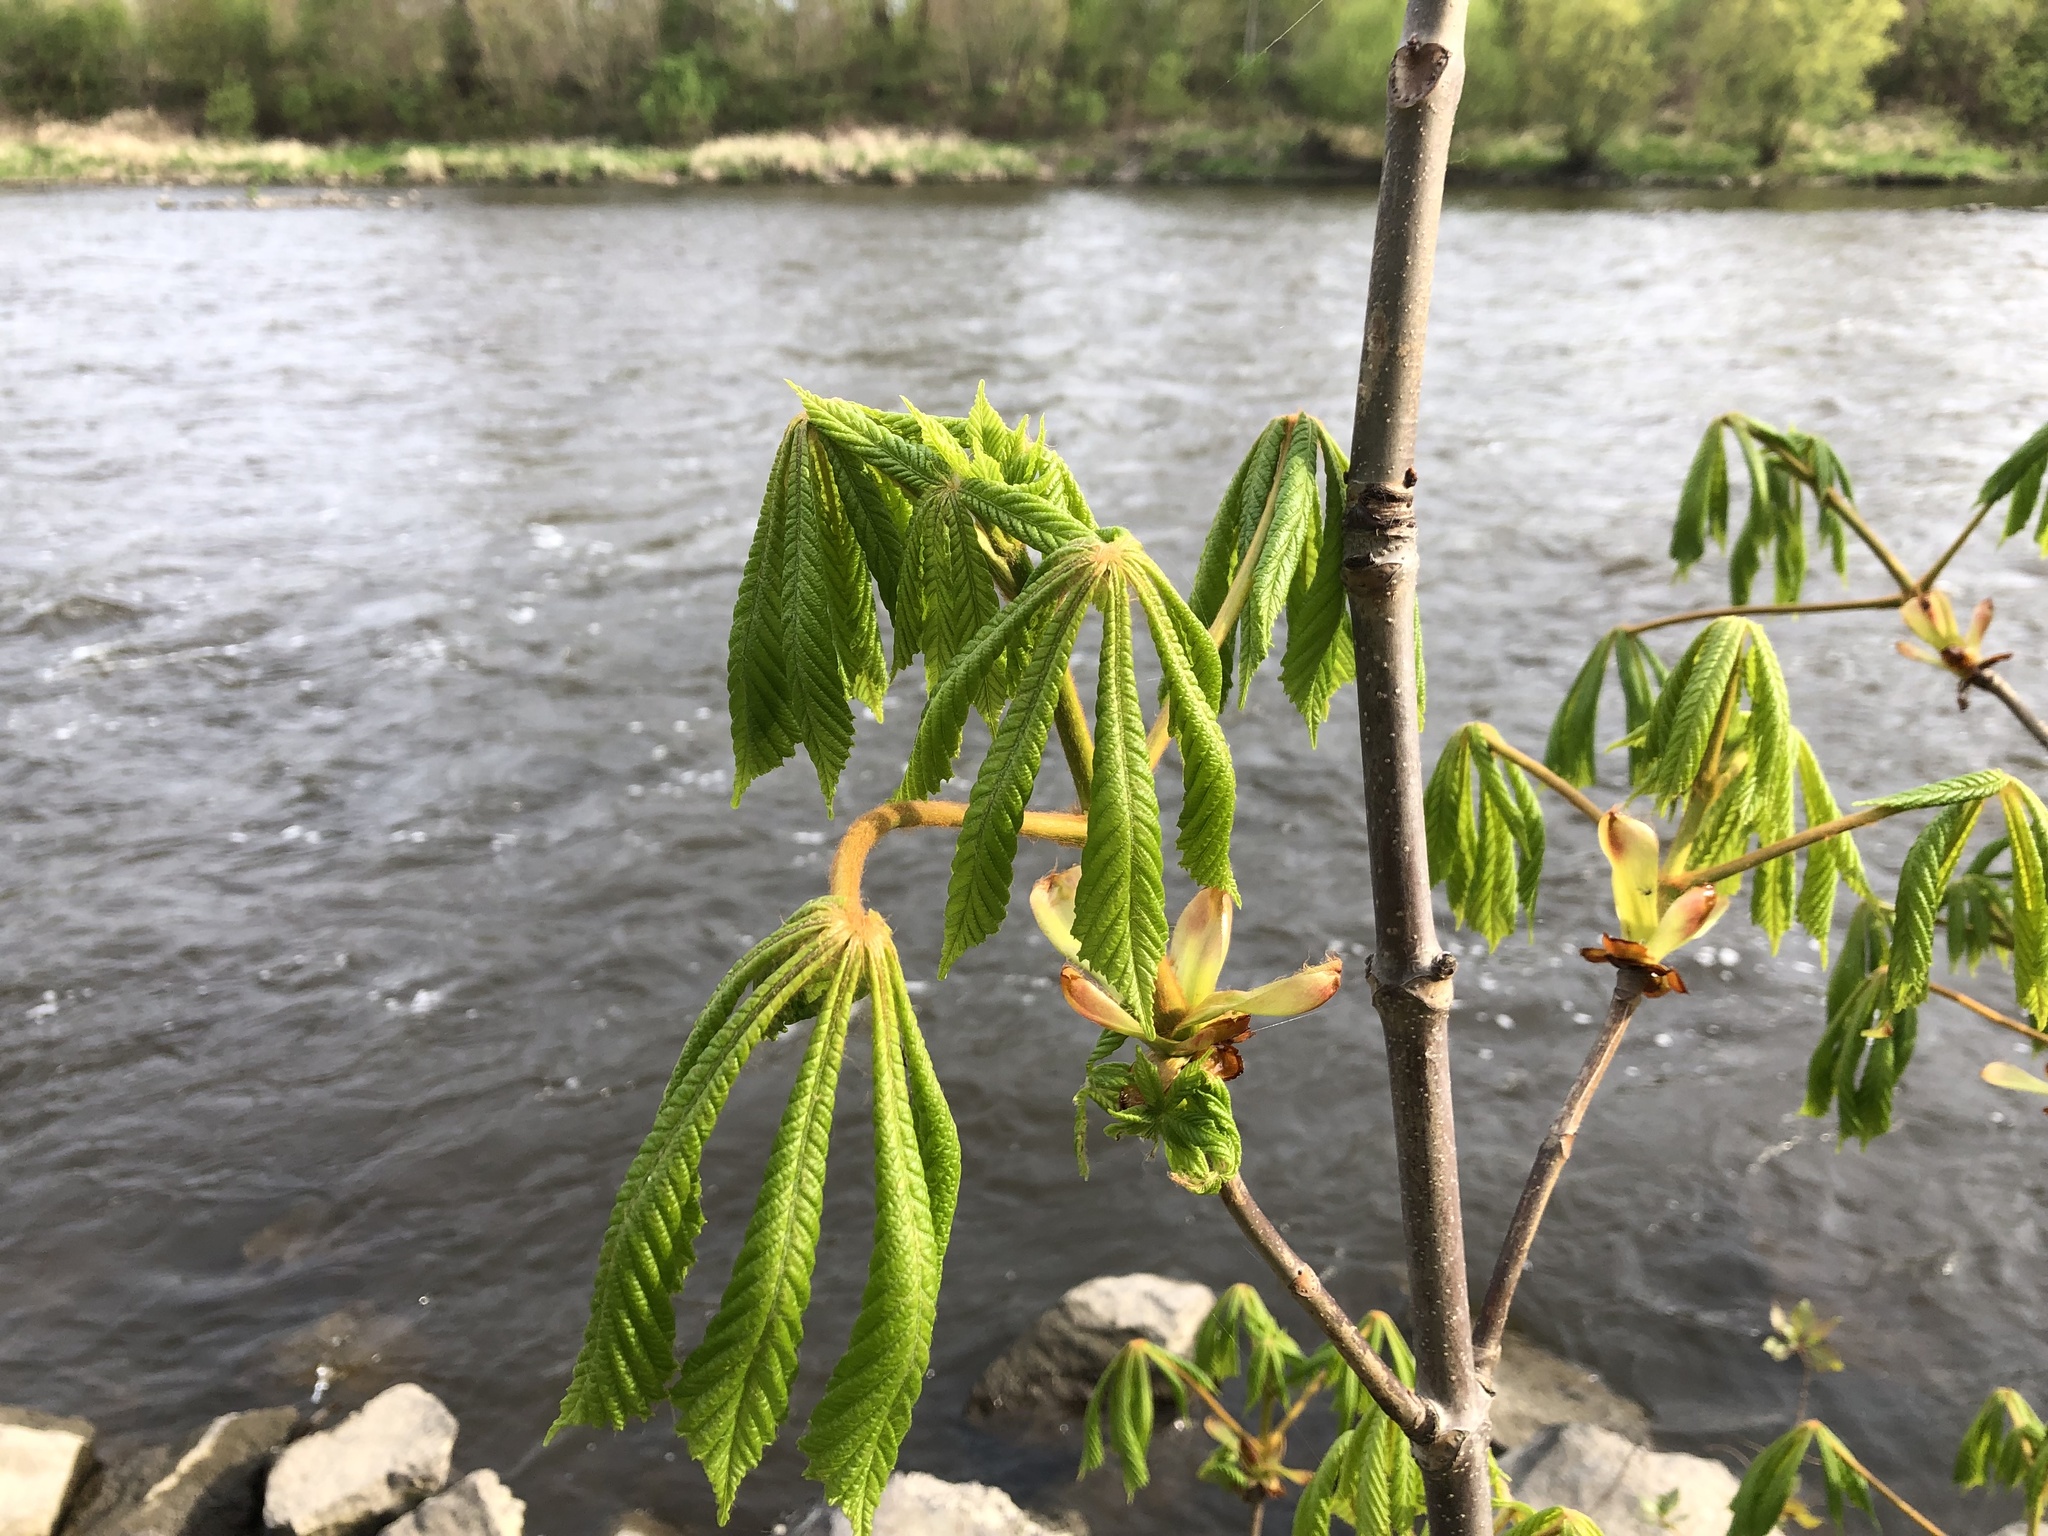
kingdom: Plantae
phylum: Tracheophyta
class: Magnoliopsida
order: Sapindales
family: Sapindaceae
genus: Aesculus
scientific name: Aesculus hippocastanum
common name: Horse-chestnut
